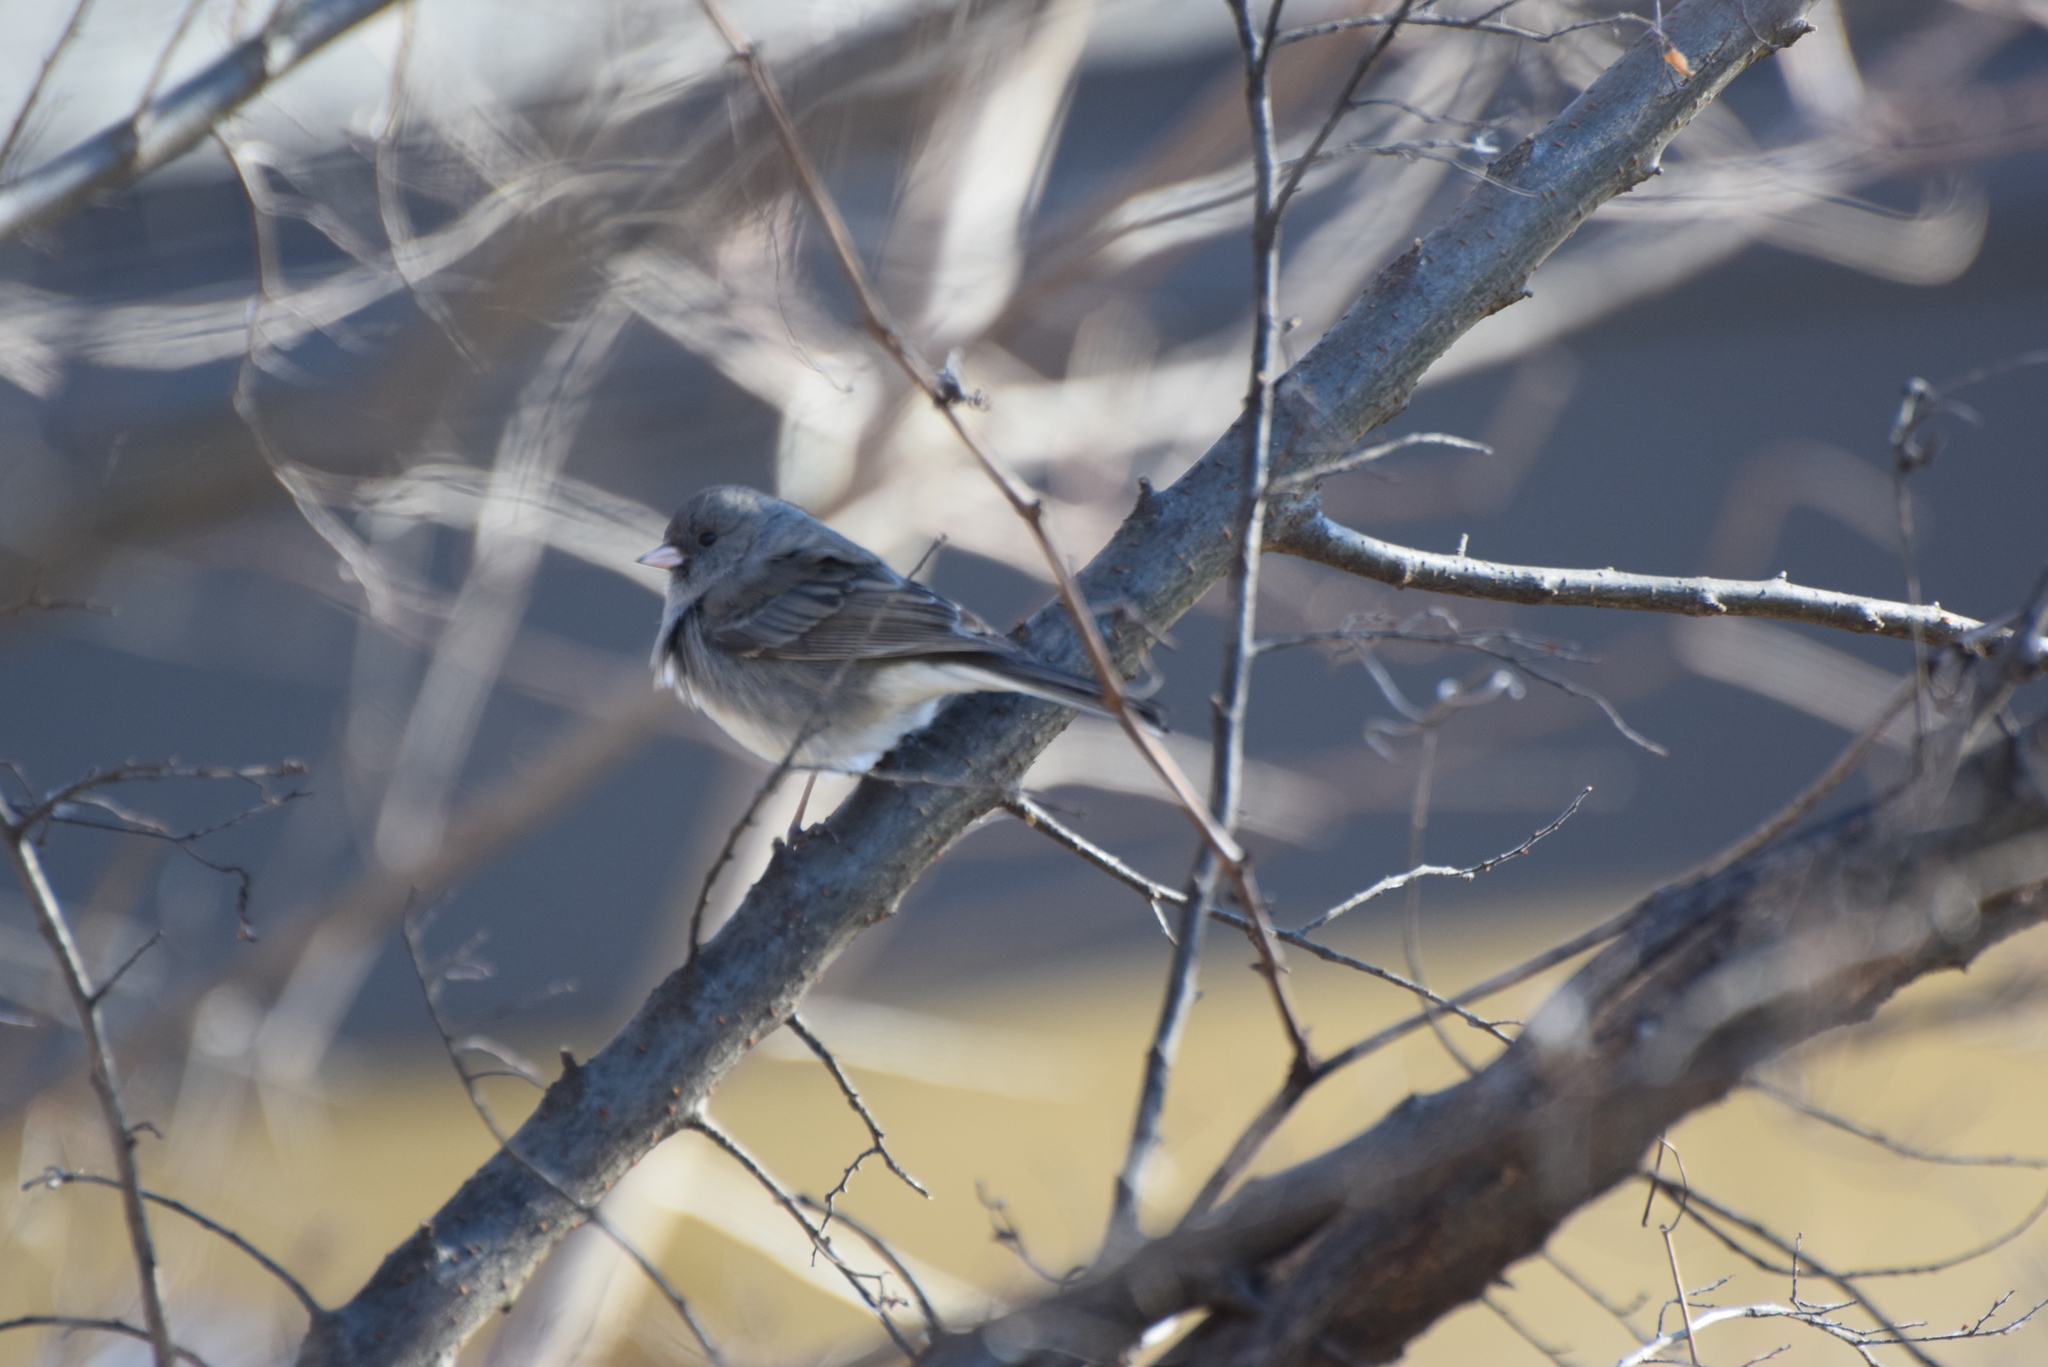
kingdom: Animalia
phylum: Chordata
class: Aves
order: Passeriformes
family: Passerellidae
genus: Junco
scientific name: Junco hyemalis
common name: Dark-eyed junco
